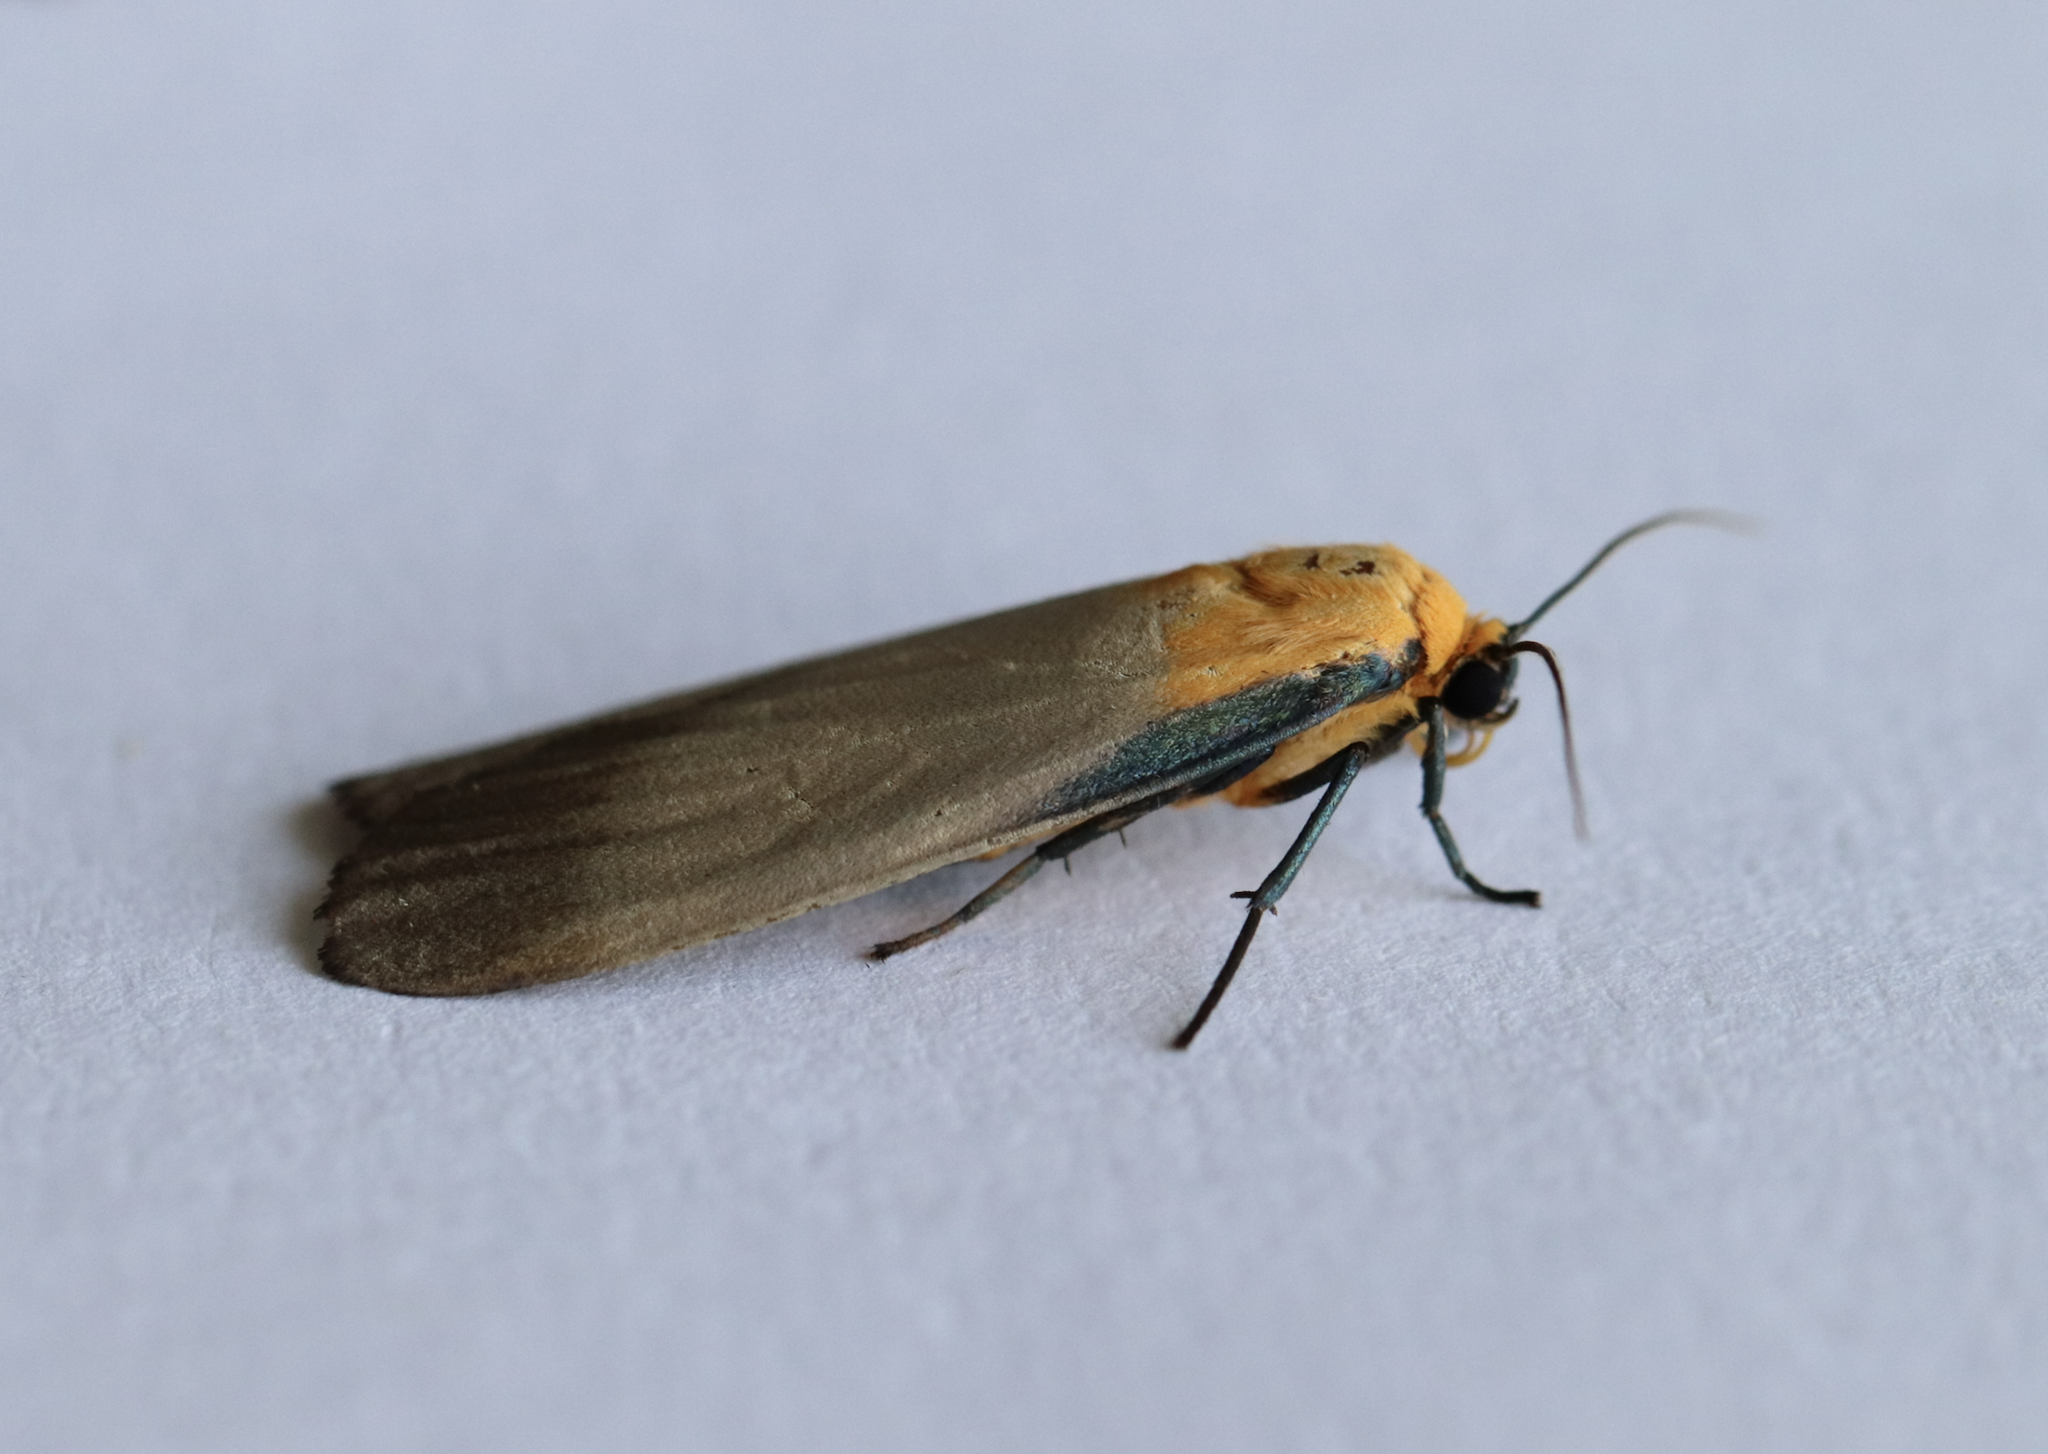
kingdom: Animalia
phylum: Arthropoda
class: Insecta
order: Lepidoptera
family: Erebidae
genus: Lithosia
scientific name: Lithosia quadra
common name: Four-spotted footman
